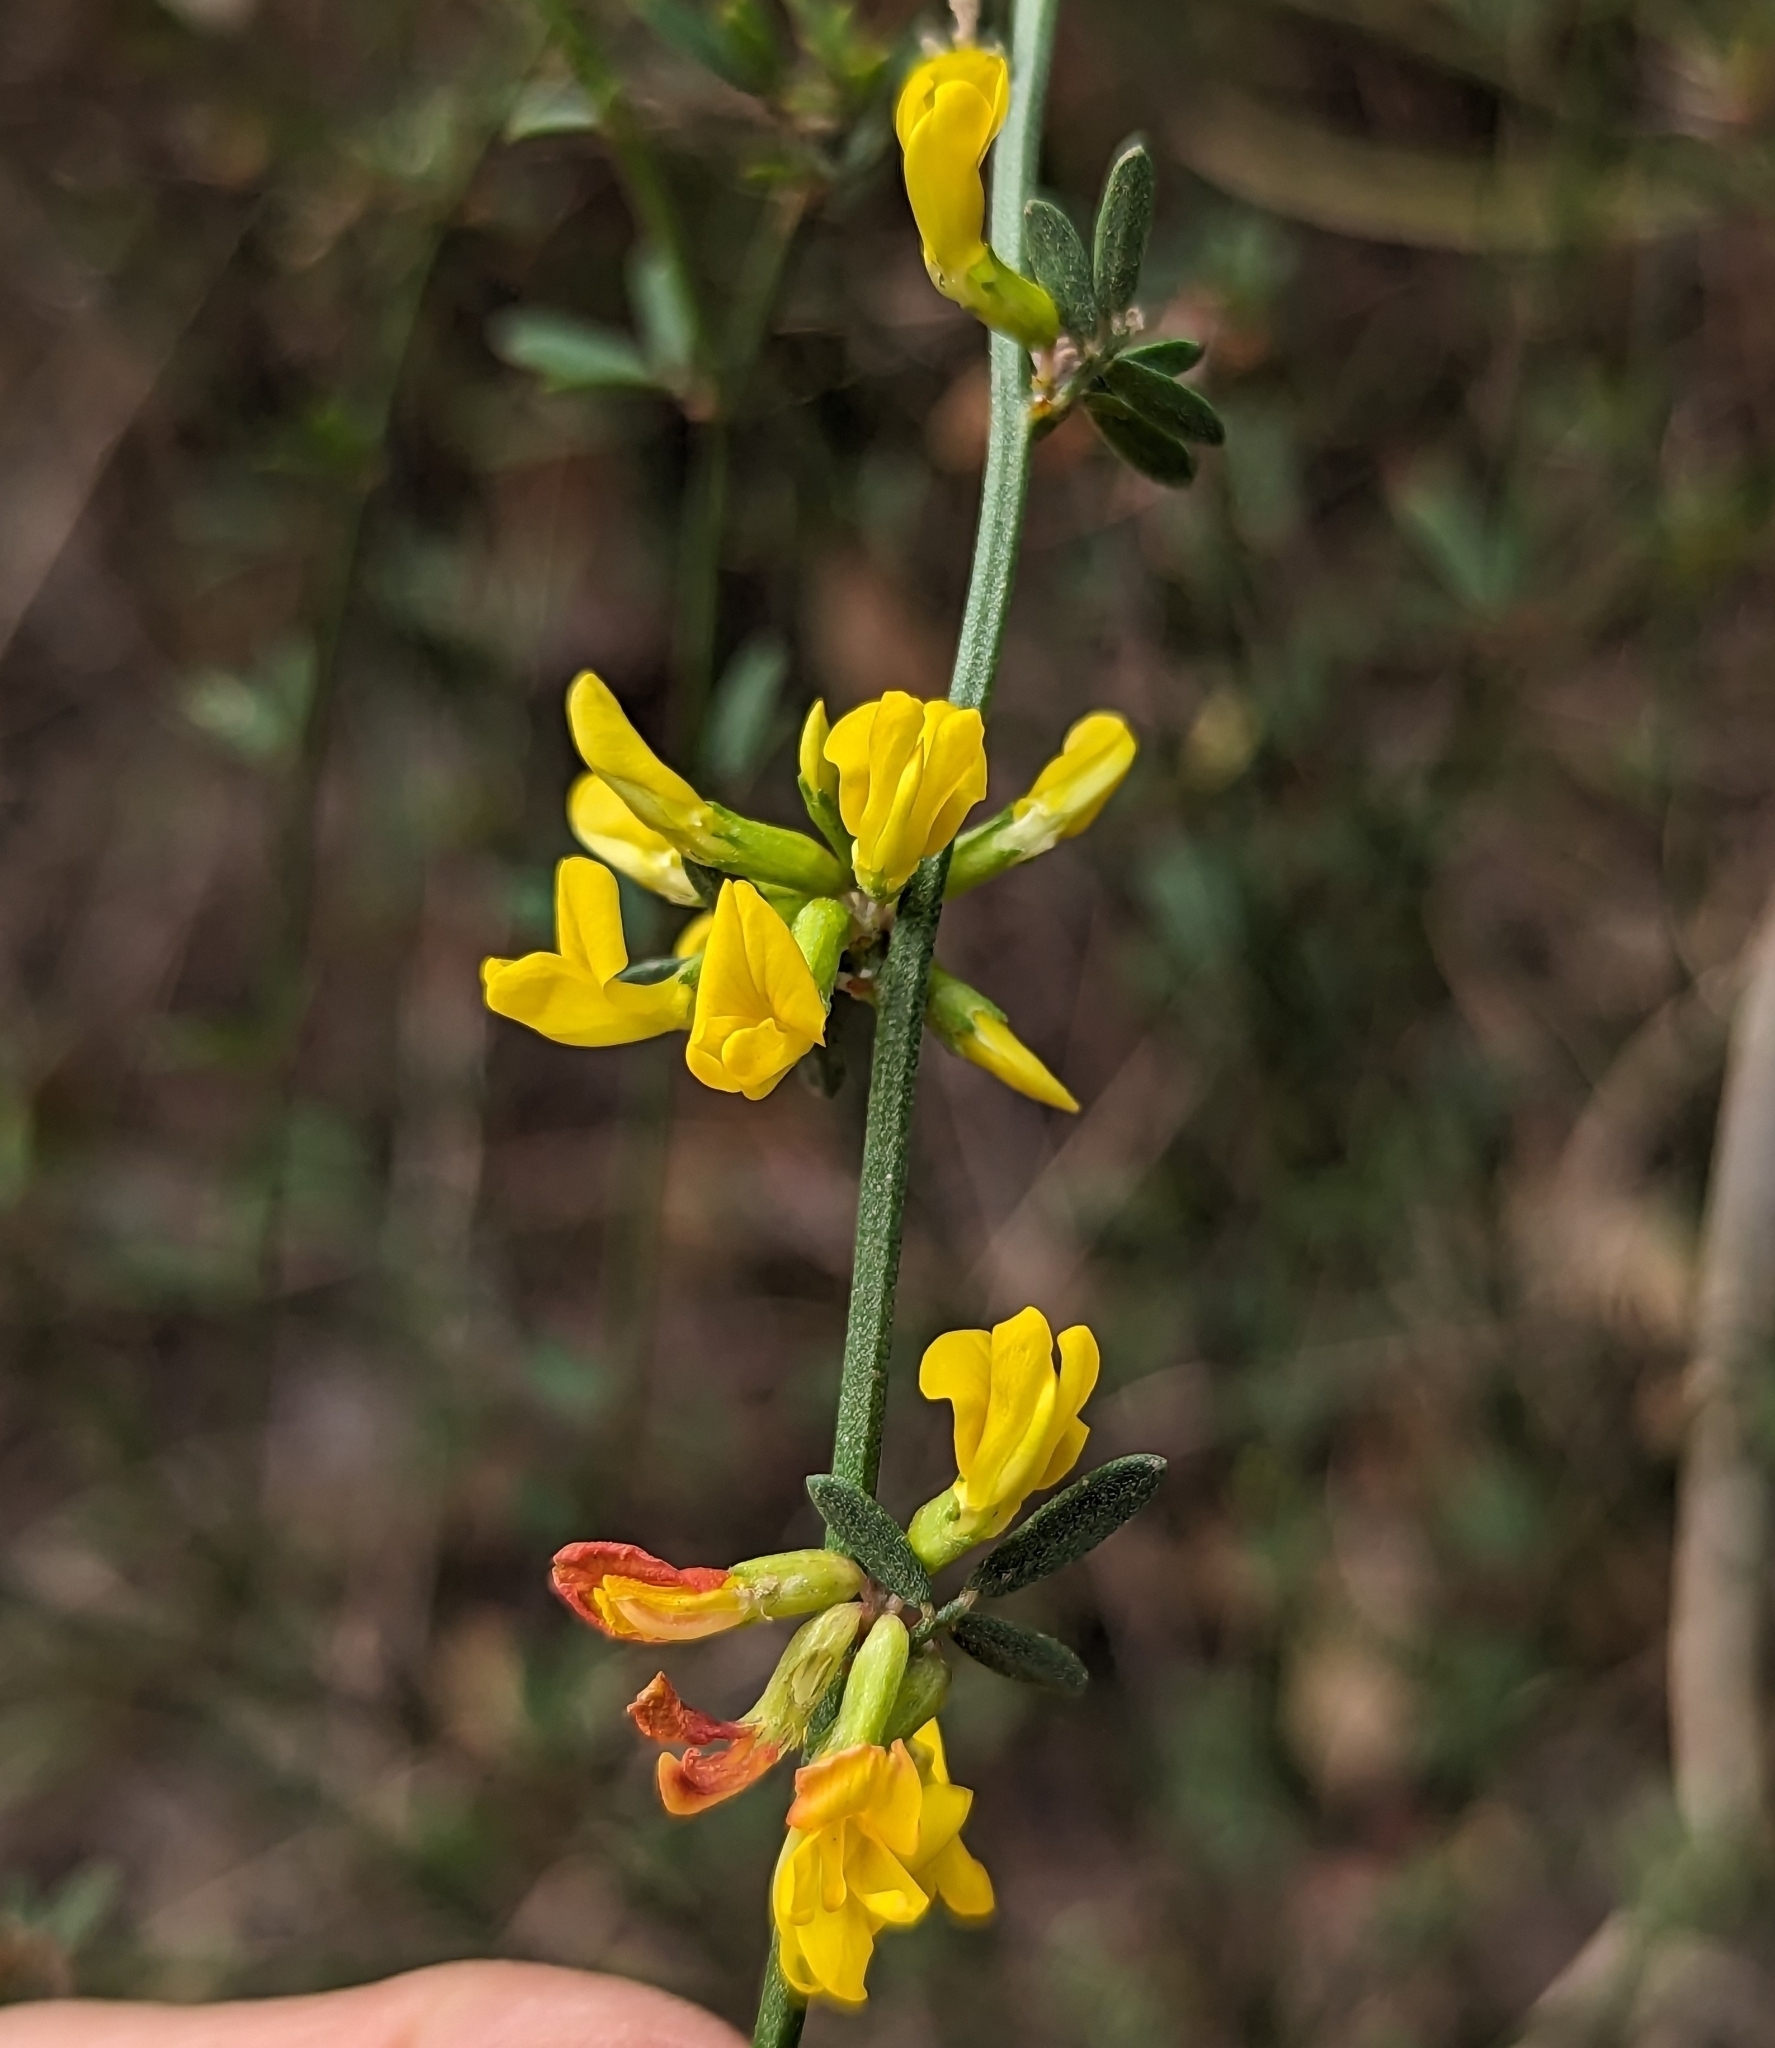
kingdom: Plantae
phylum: Tracheophyta
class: Magnoliopsida
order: Fabales
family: Fabaceae
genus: Acmispon
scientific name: Acmispon glaber
